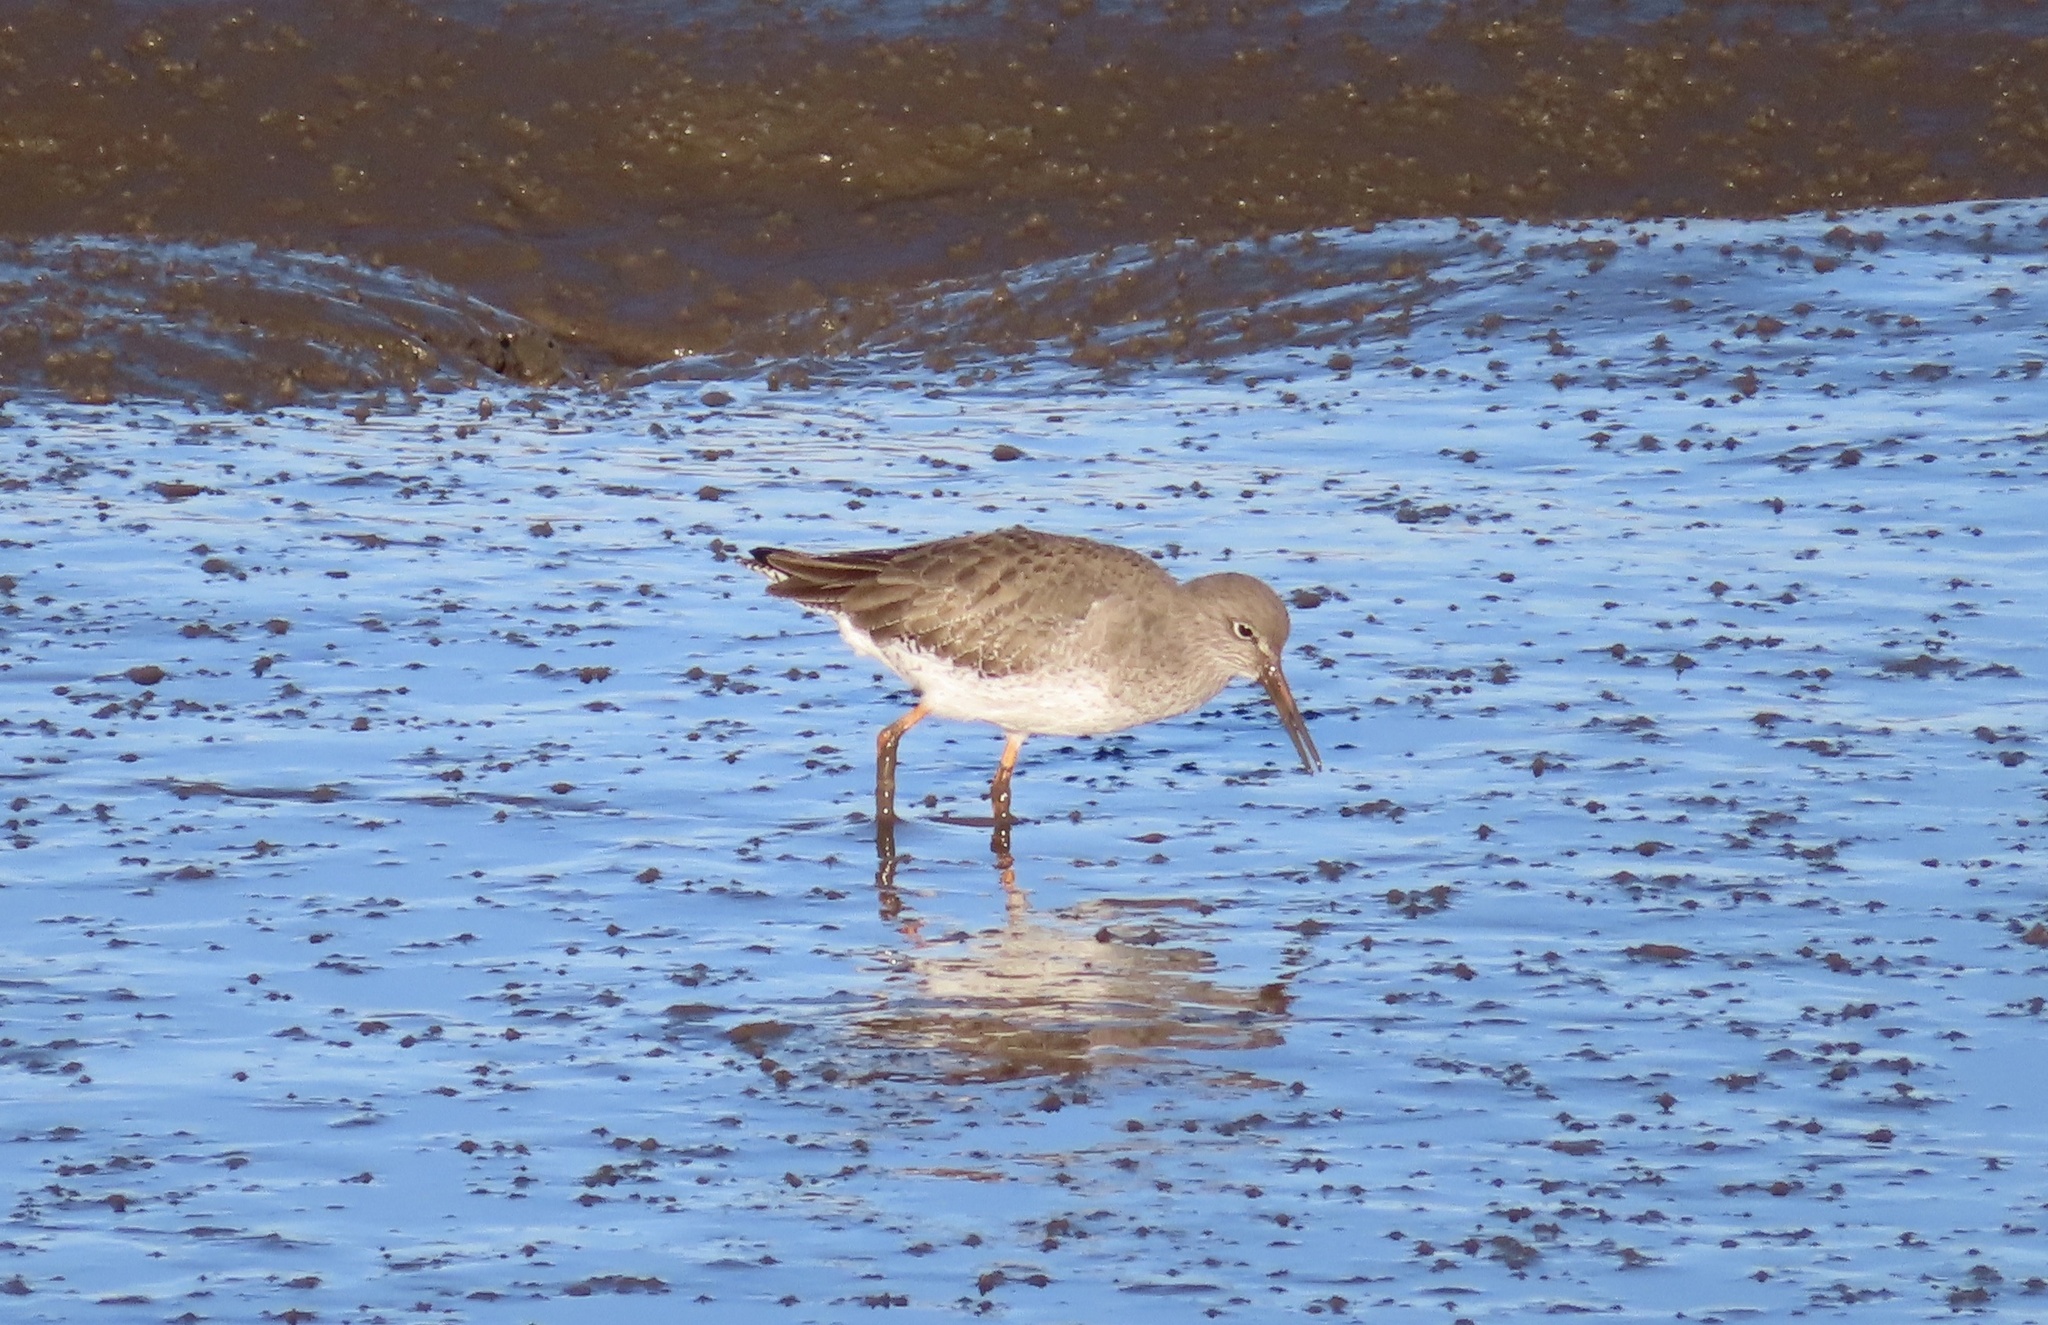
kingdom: Animalia
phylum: Chordata
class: Aves
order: Charadriiformes
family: Scolopacidae
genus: Tringa
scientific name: Tringa totanus
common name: Common redshank
